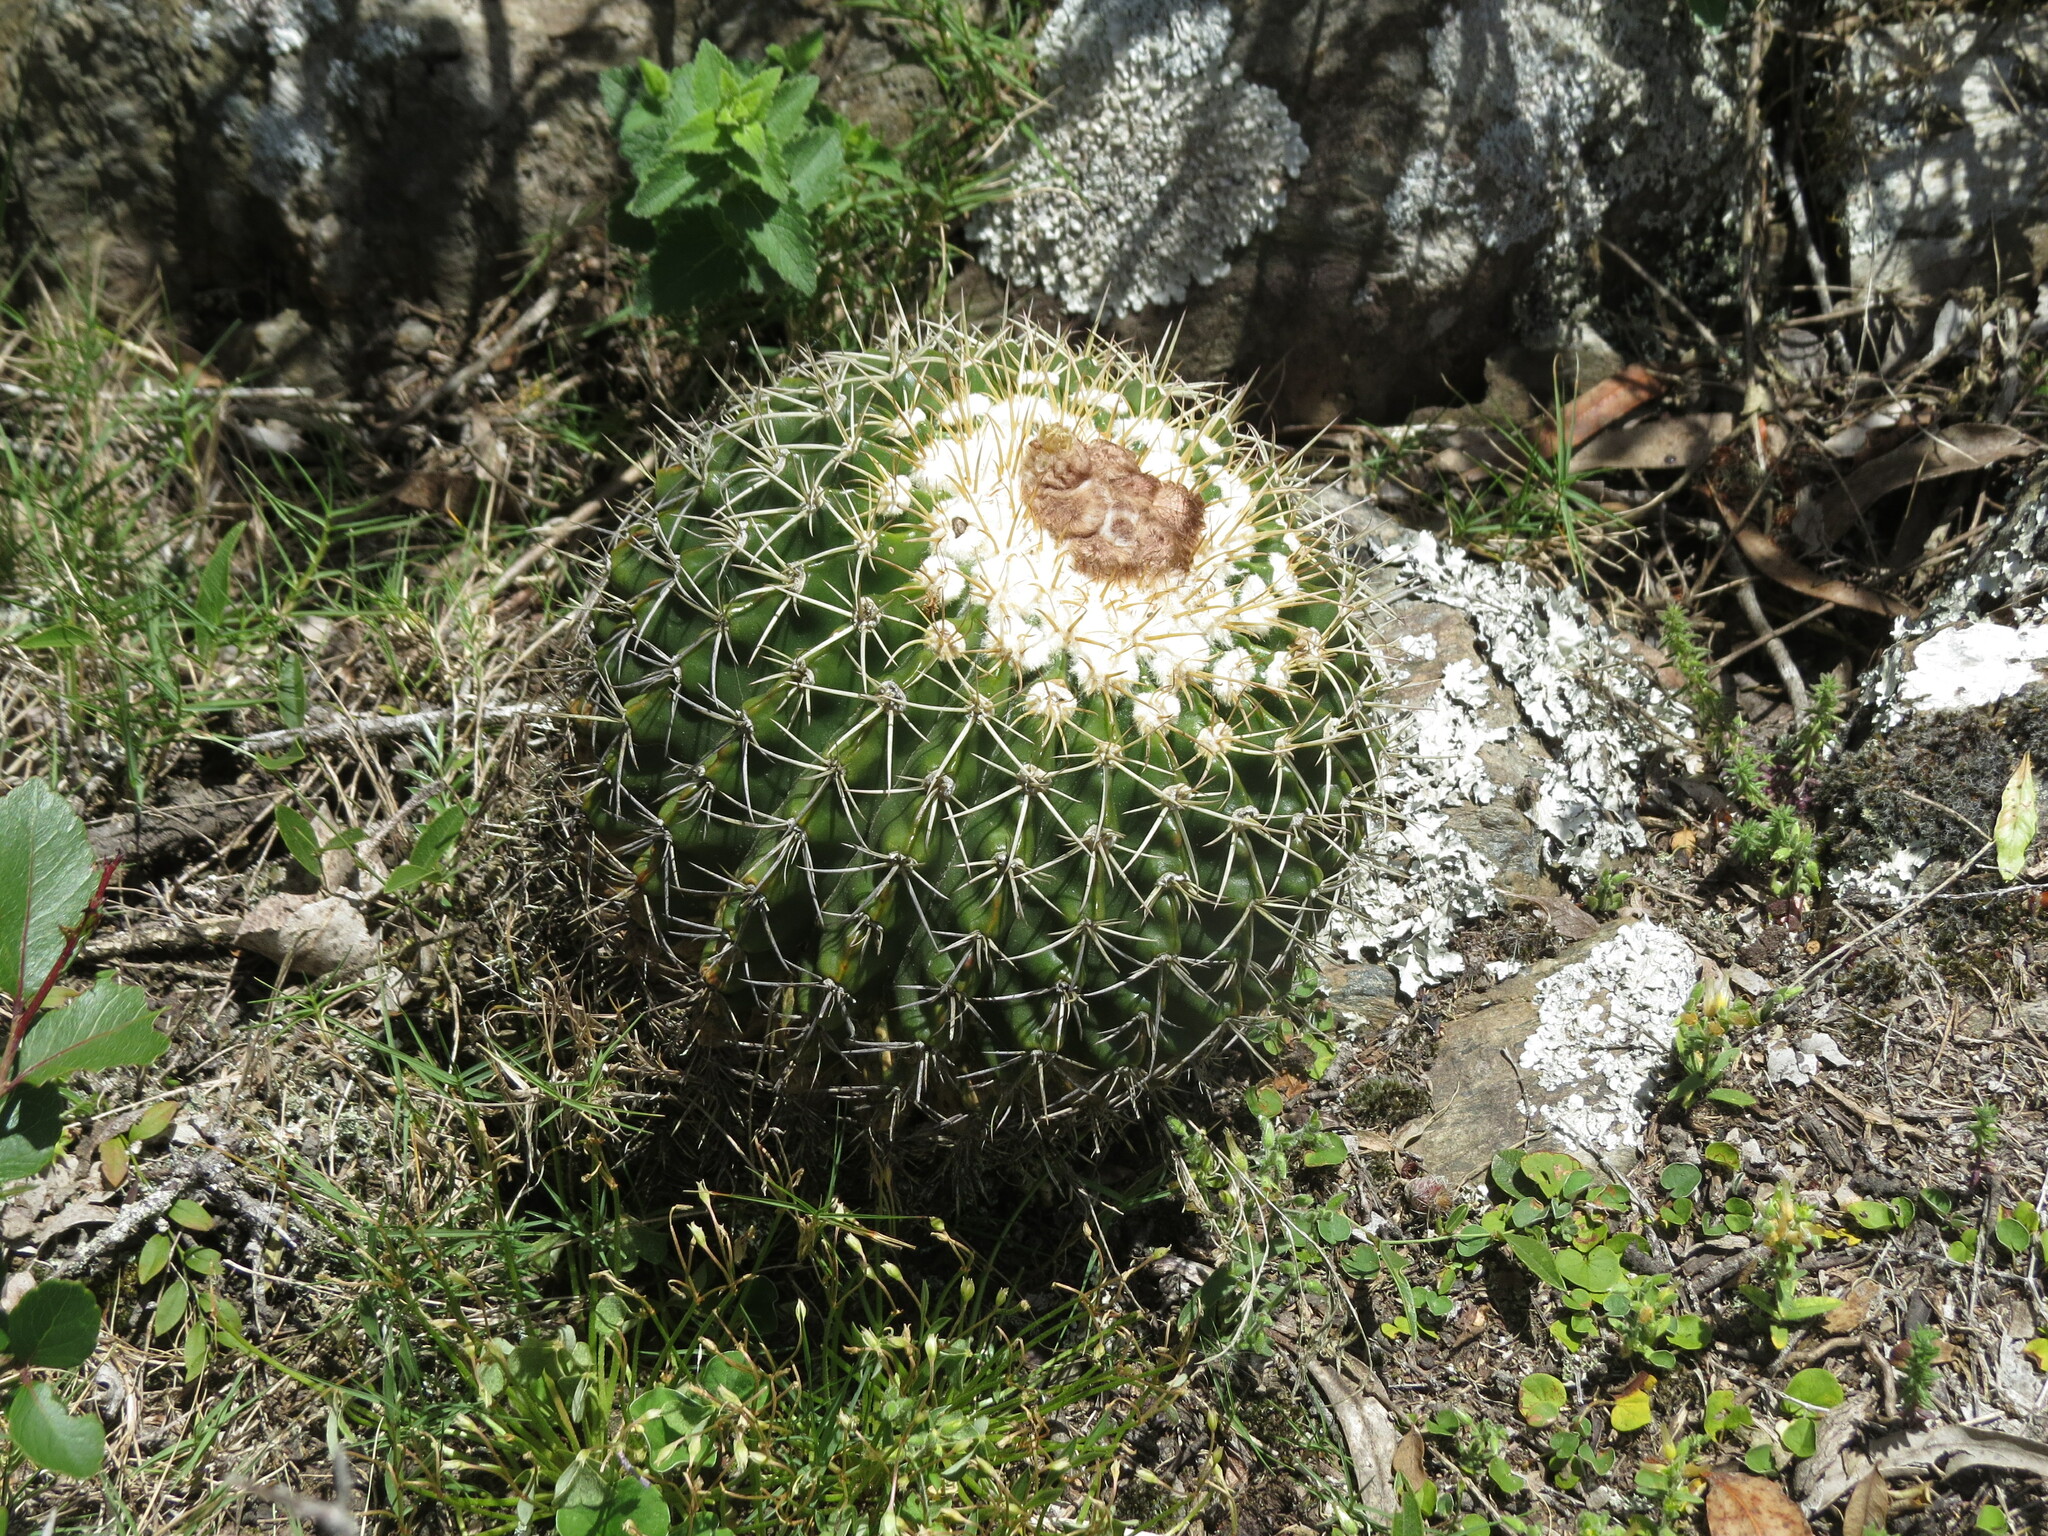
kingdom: Plantae
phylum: Tracheophyta
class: Magnoliopsida
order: Caryophyllales
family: Cactaceae
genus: Parodia
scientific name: Parodia erinacea
